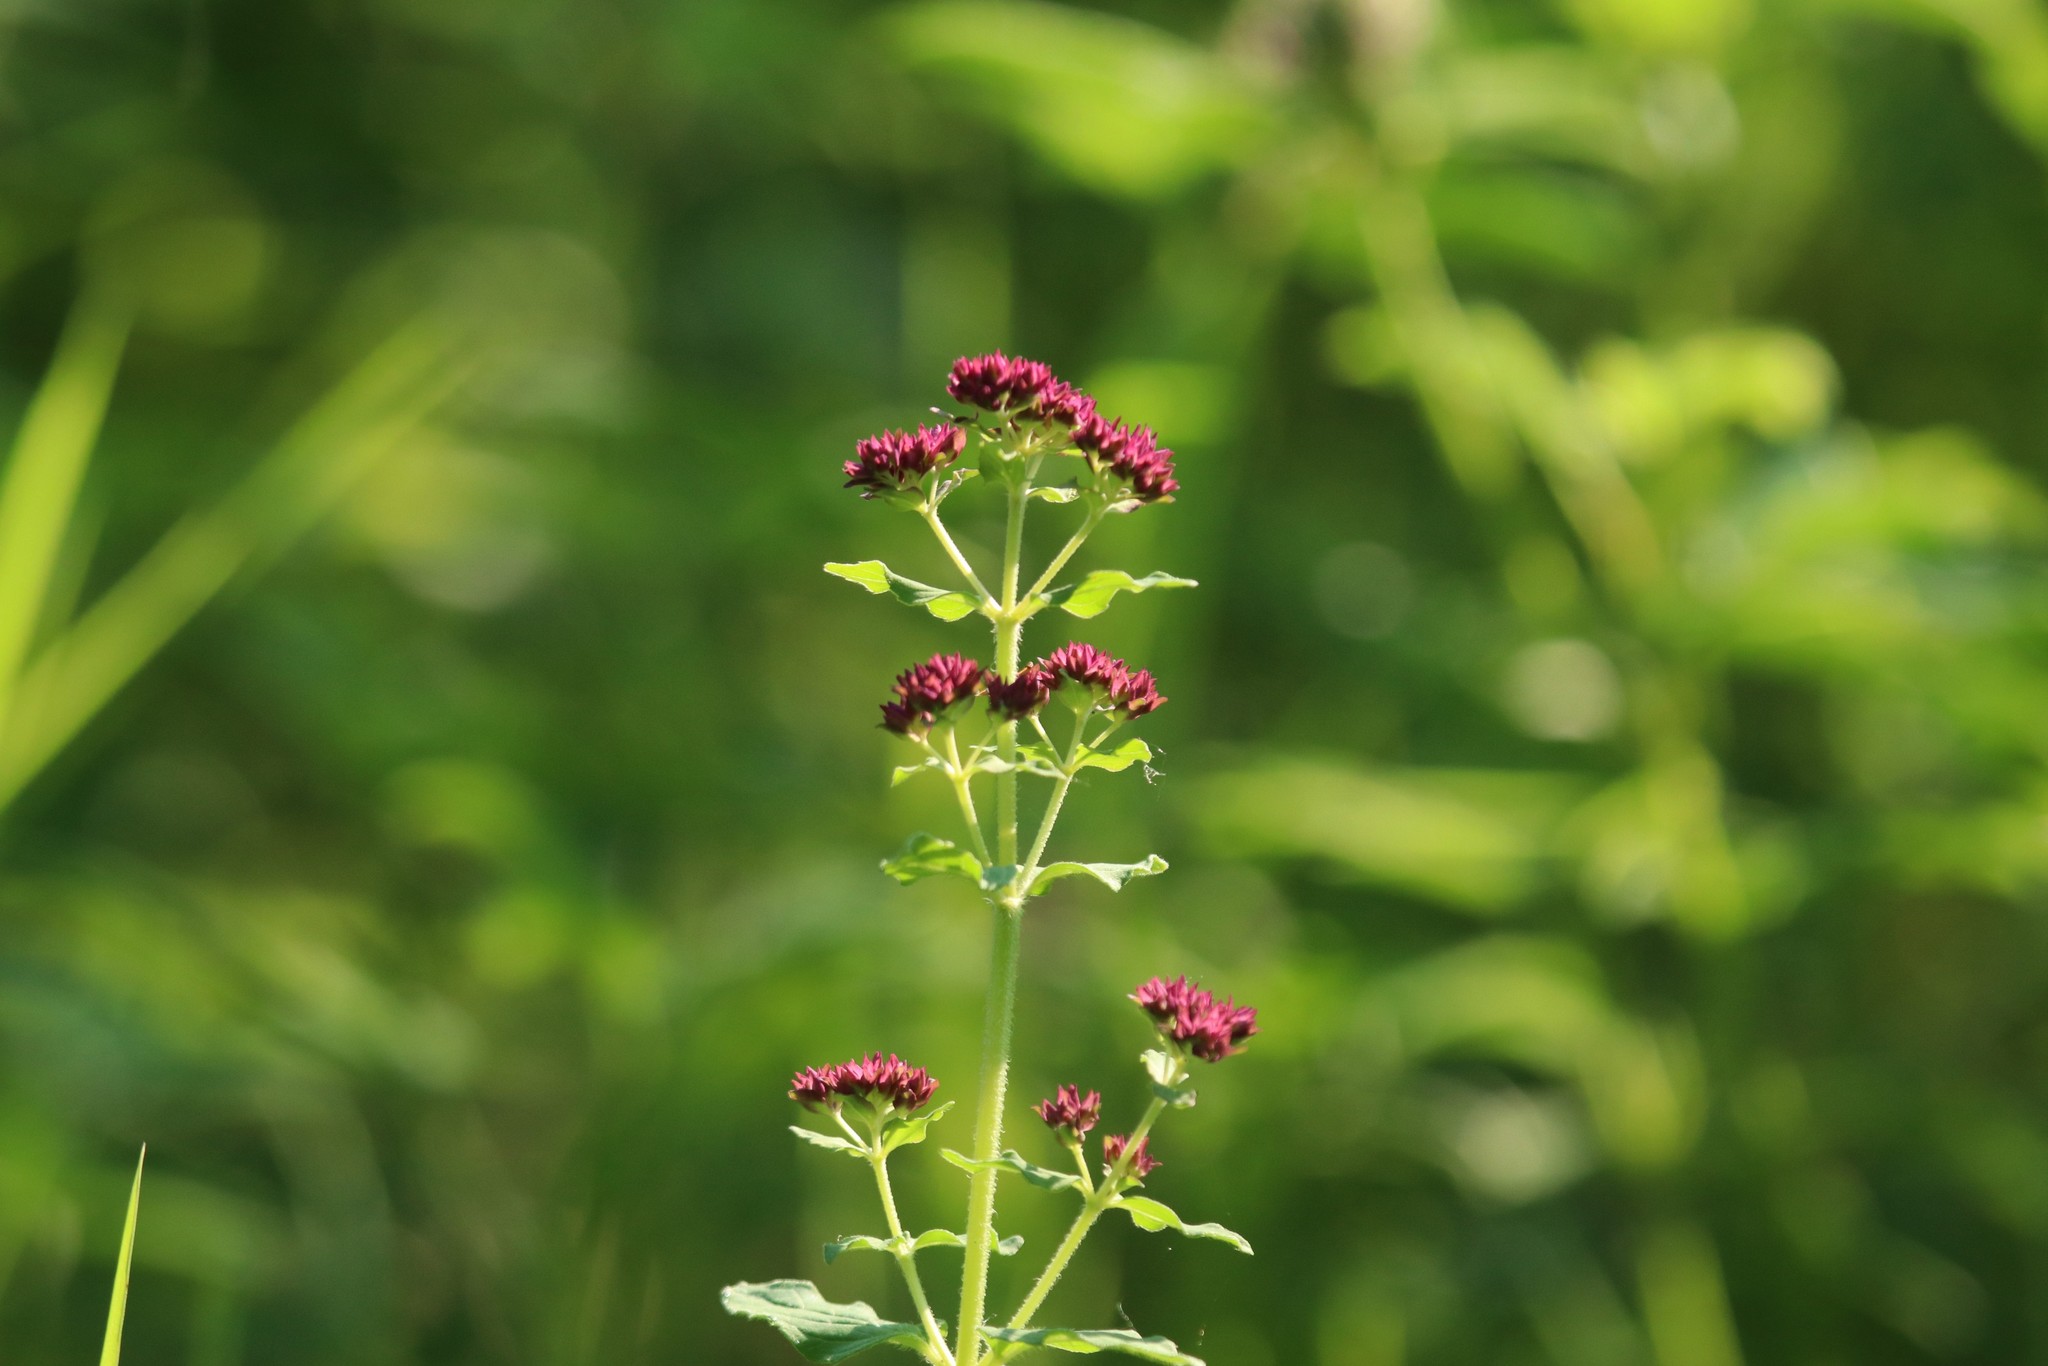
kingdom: Plantae
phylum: Tracheophyta
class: Magnoliopsida
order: Lamiales
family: Lamiaceae
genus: Origanum
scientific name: Origanum vulgare
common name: Wild marjoram
